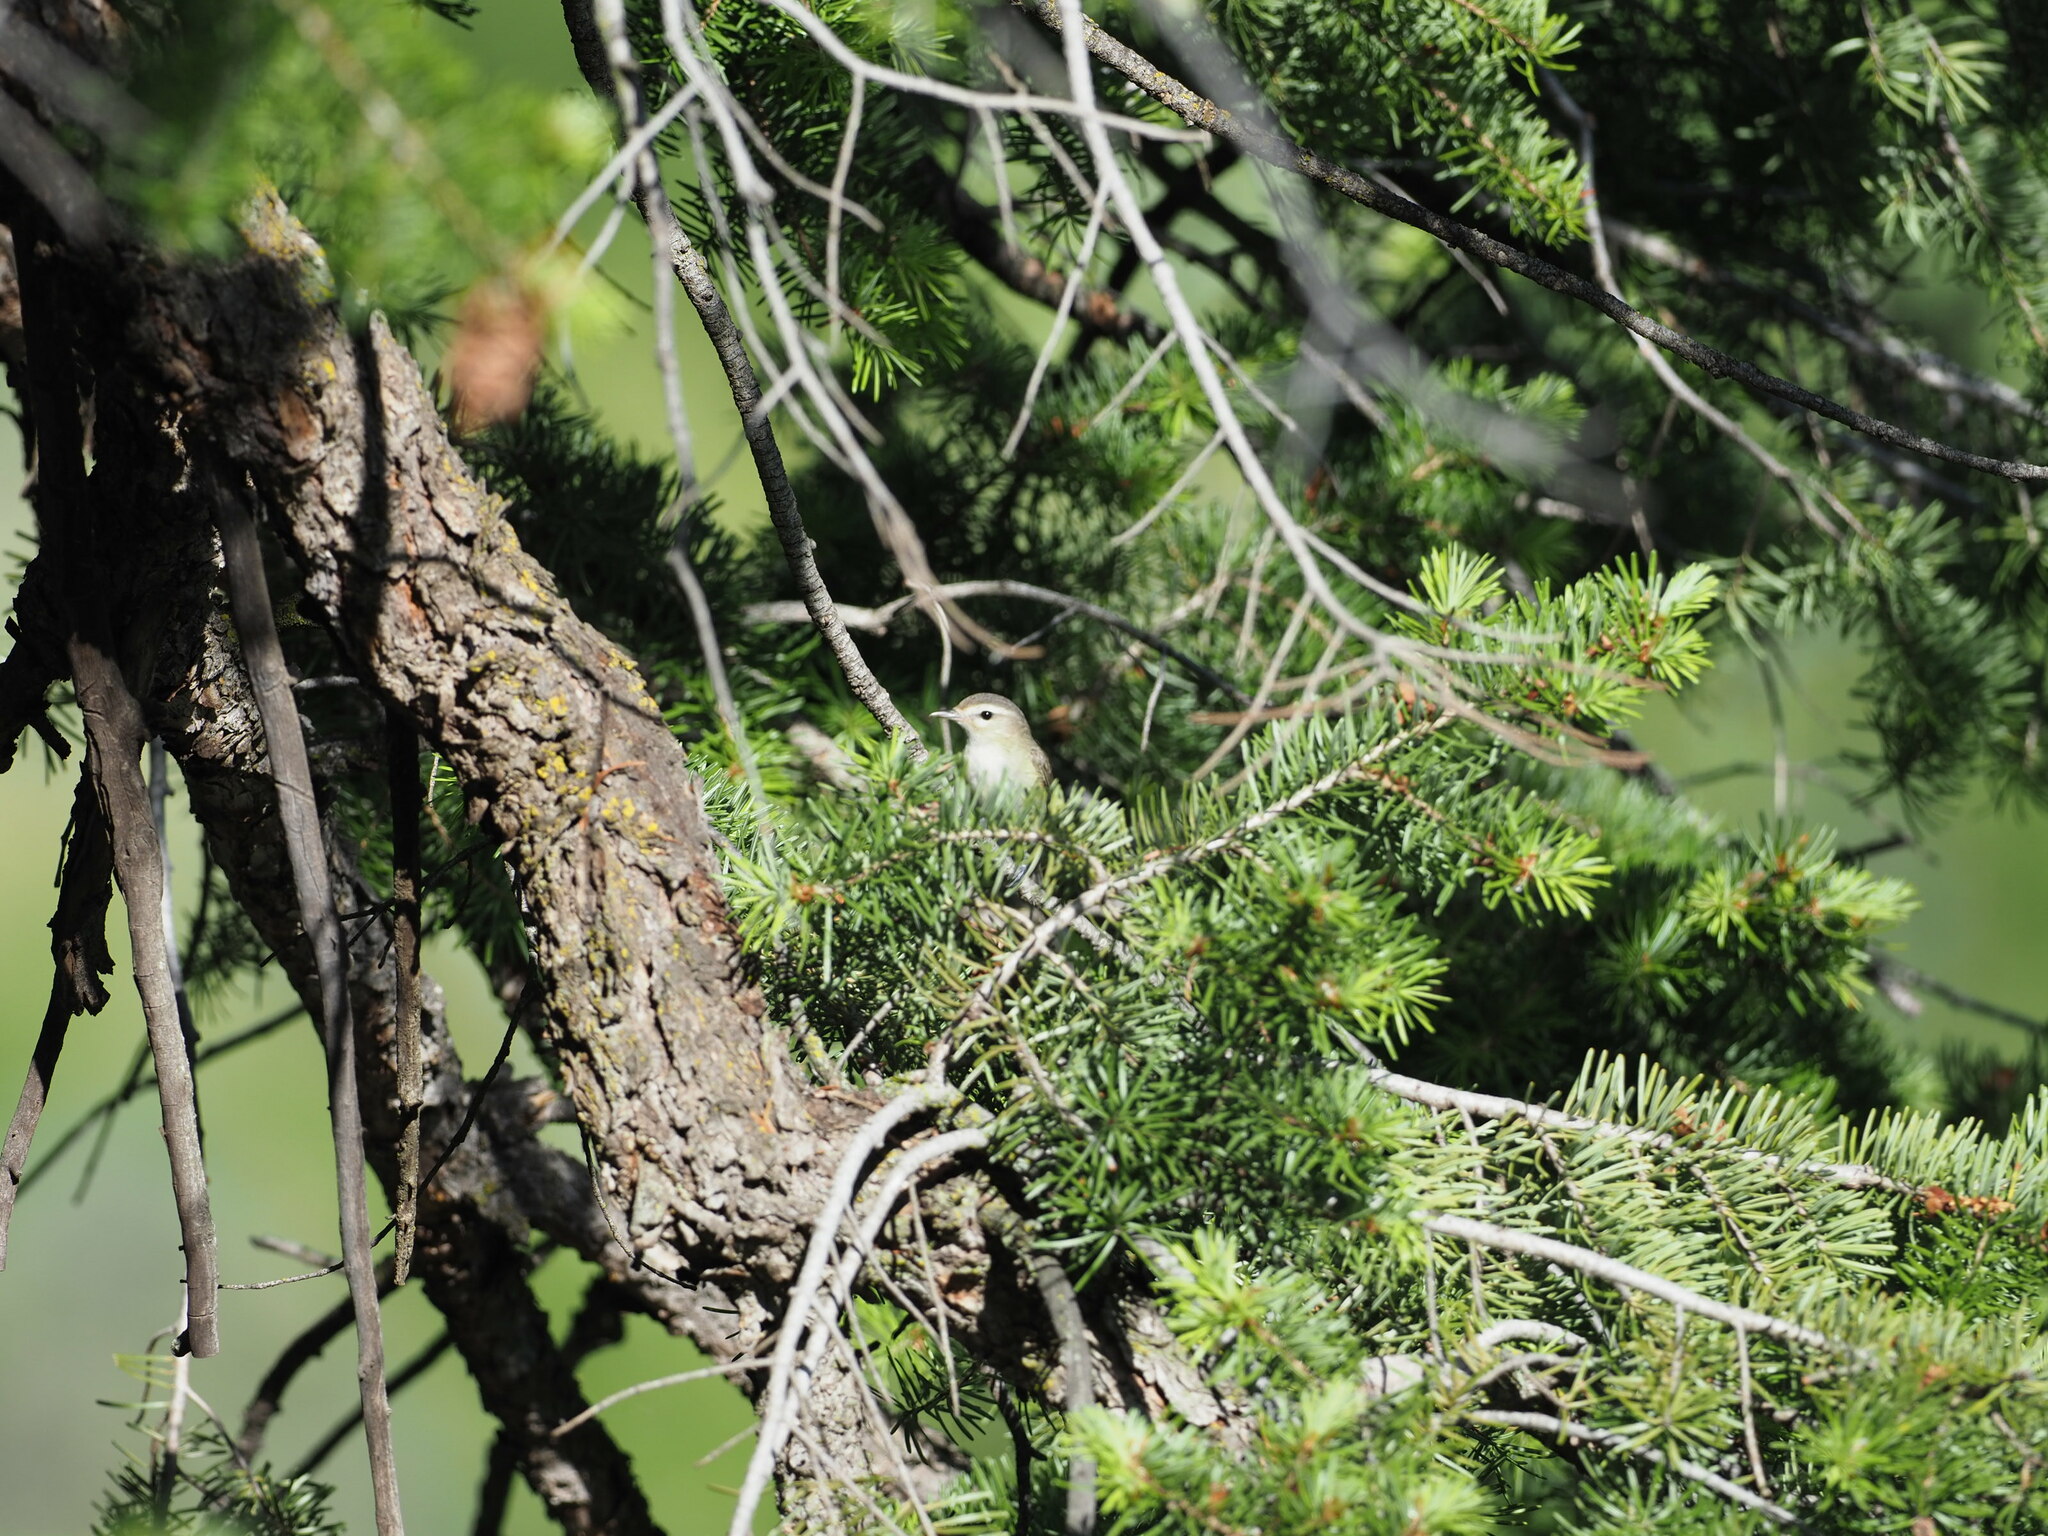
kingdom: Animalia
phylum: Chordata
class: Aves
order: Passeriformes
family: Vireonidae
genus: Vireo
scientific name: Vireo gilvus
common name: Warbling vireo
